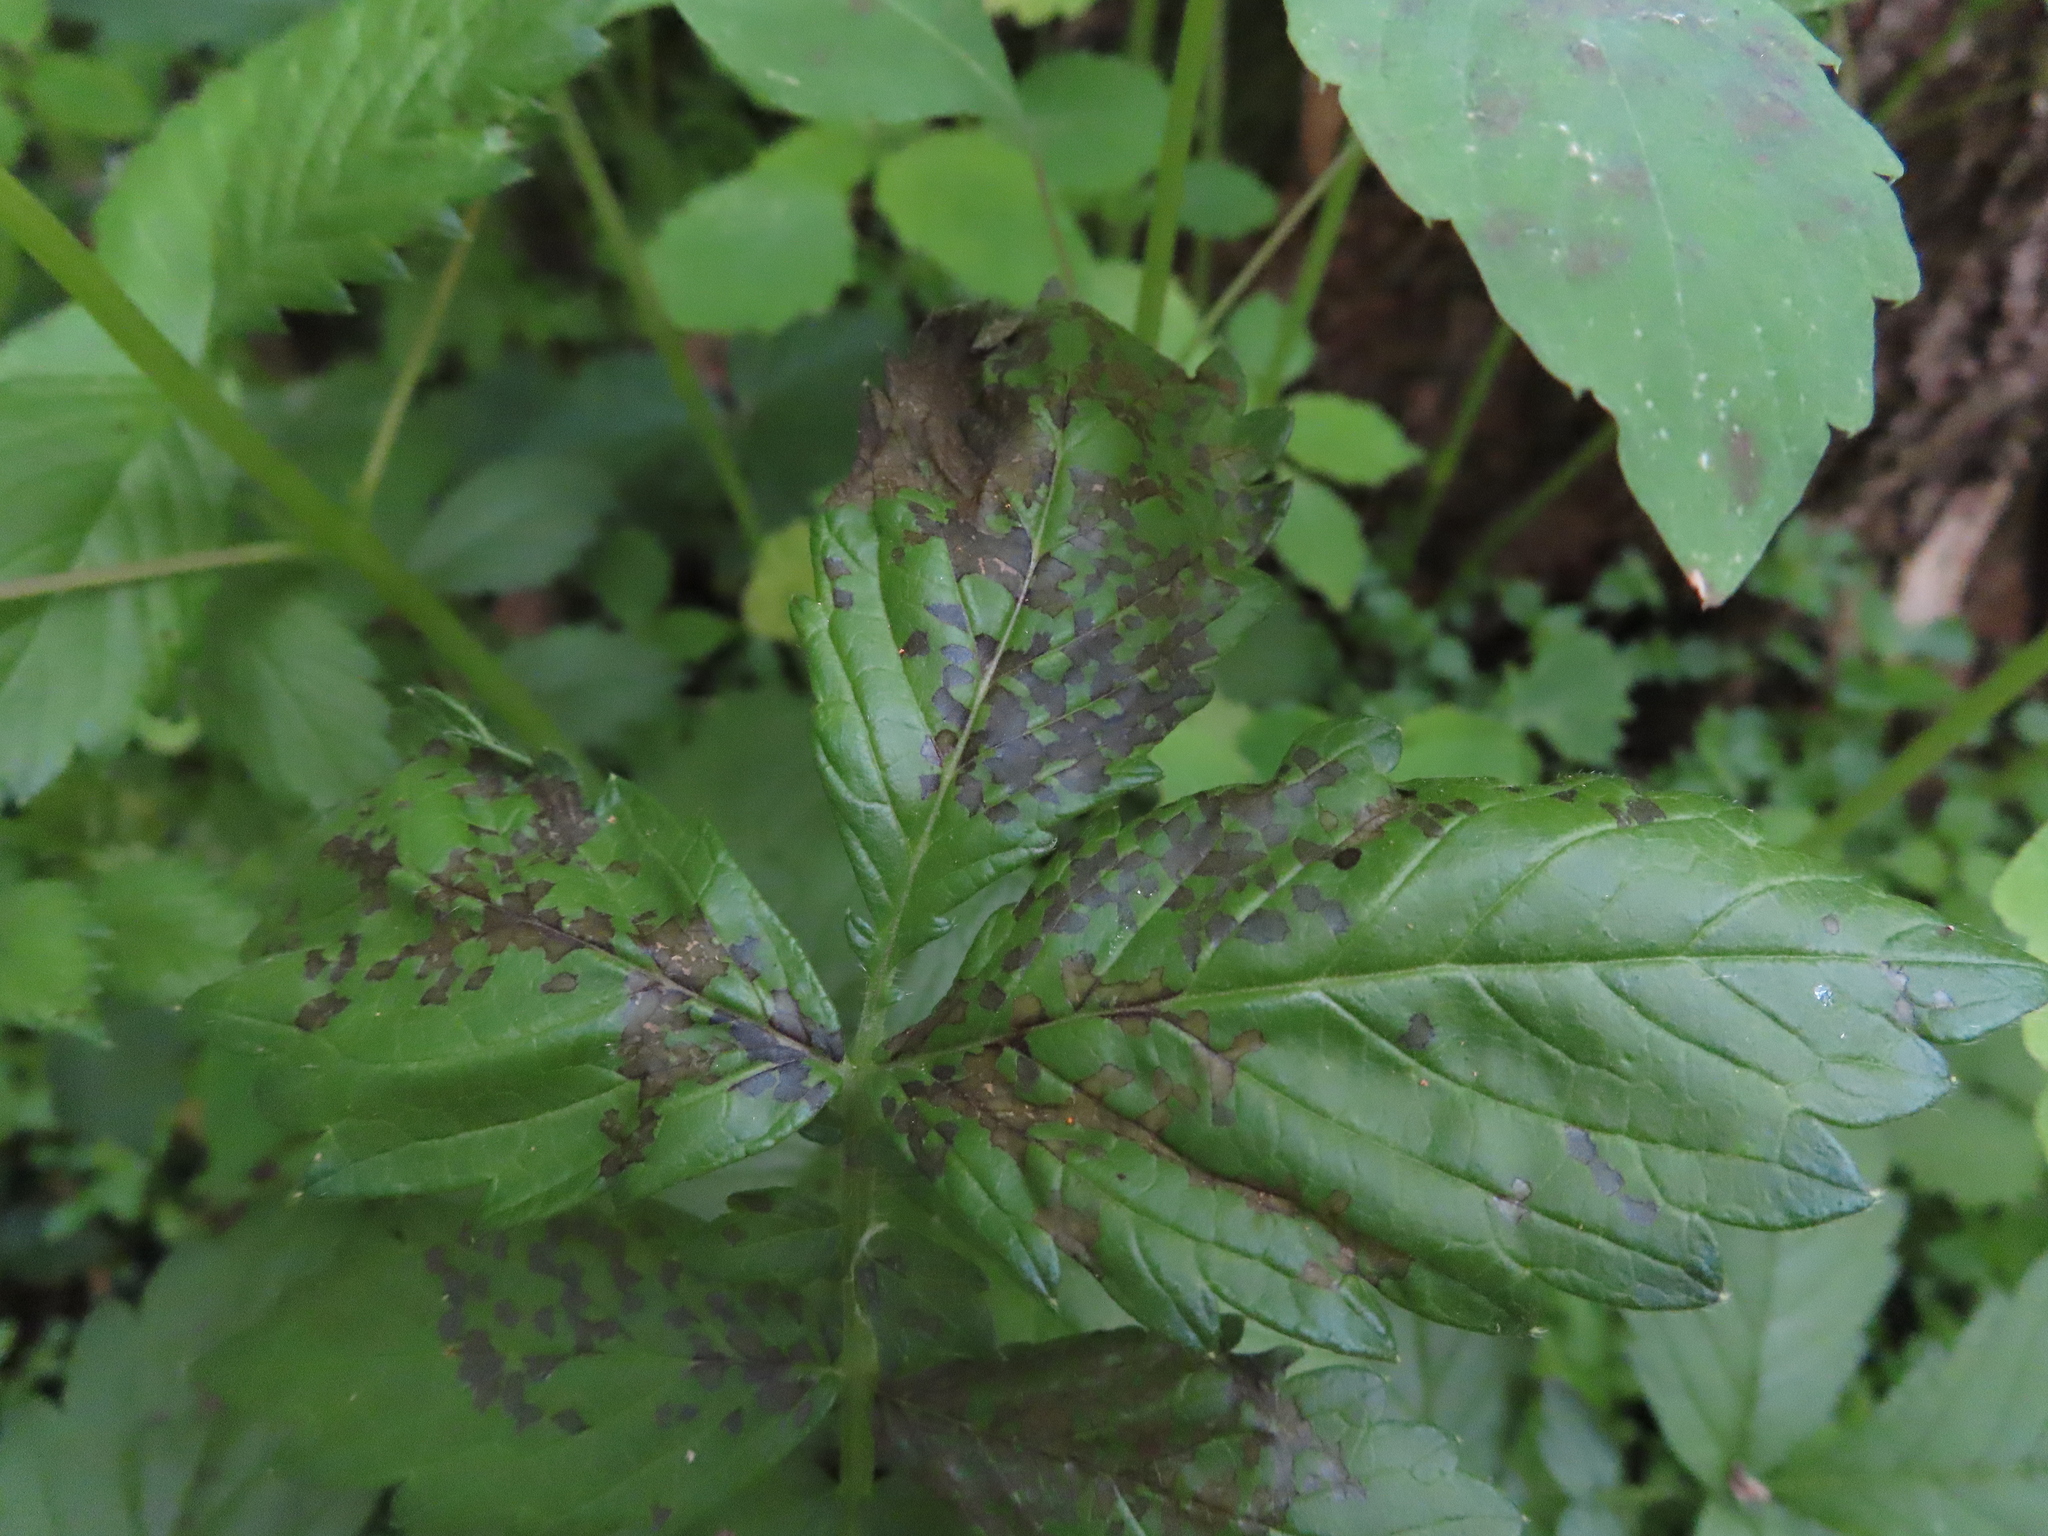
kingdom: Animalia
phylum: Arthropoda
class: Insecta
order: Hemiptera
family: Miridae
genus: Poecilocapsus
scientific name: Poecilocapsus lineatus
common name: Four-lined plant bug
